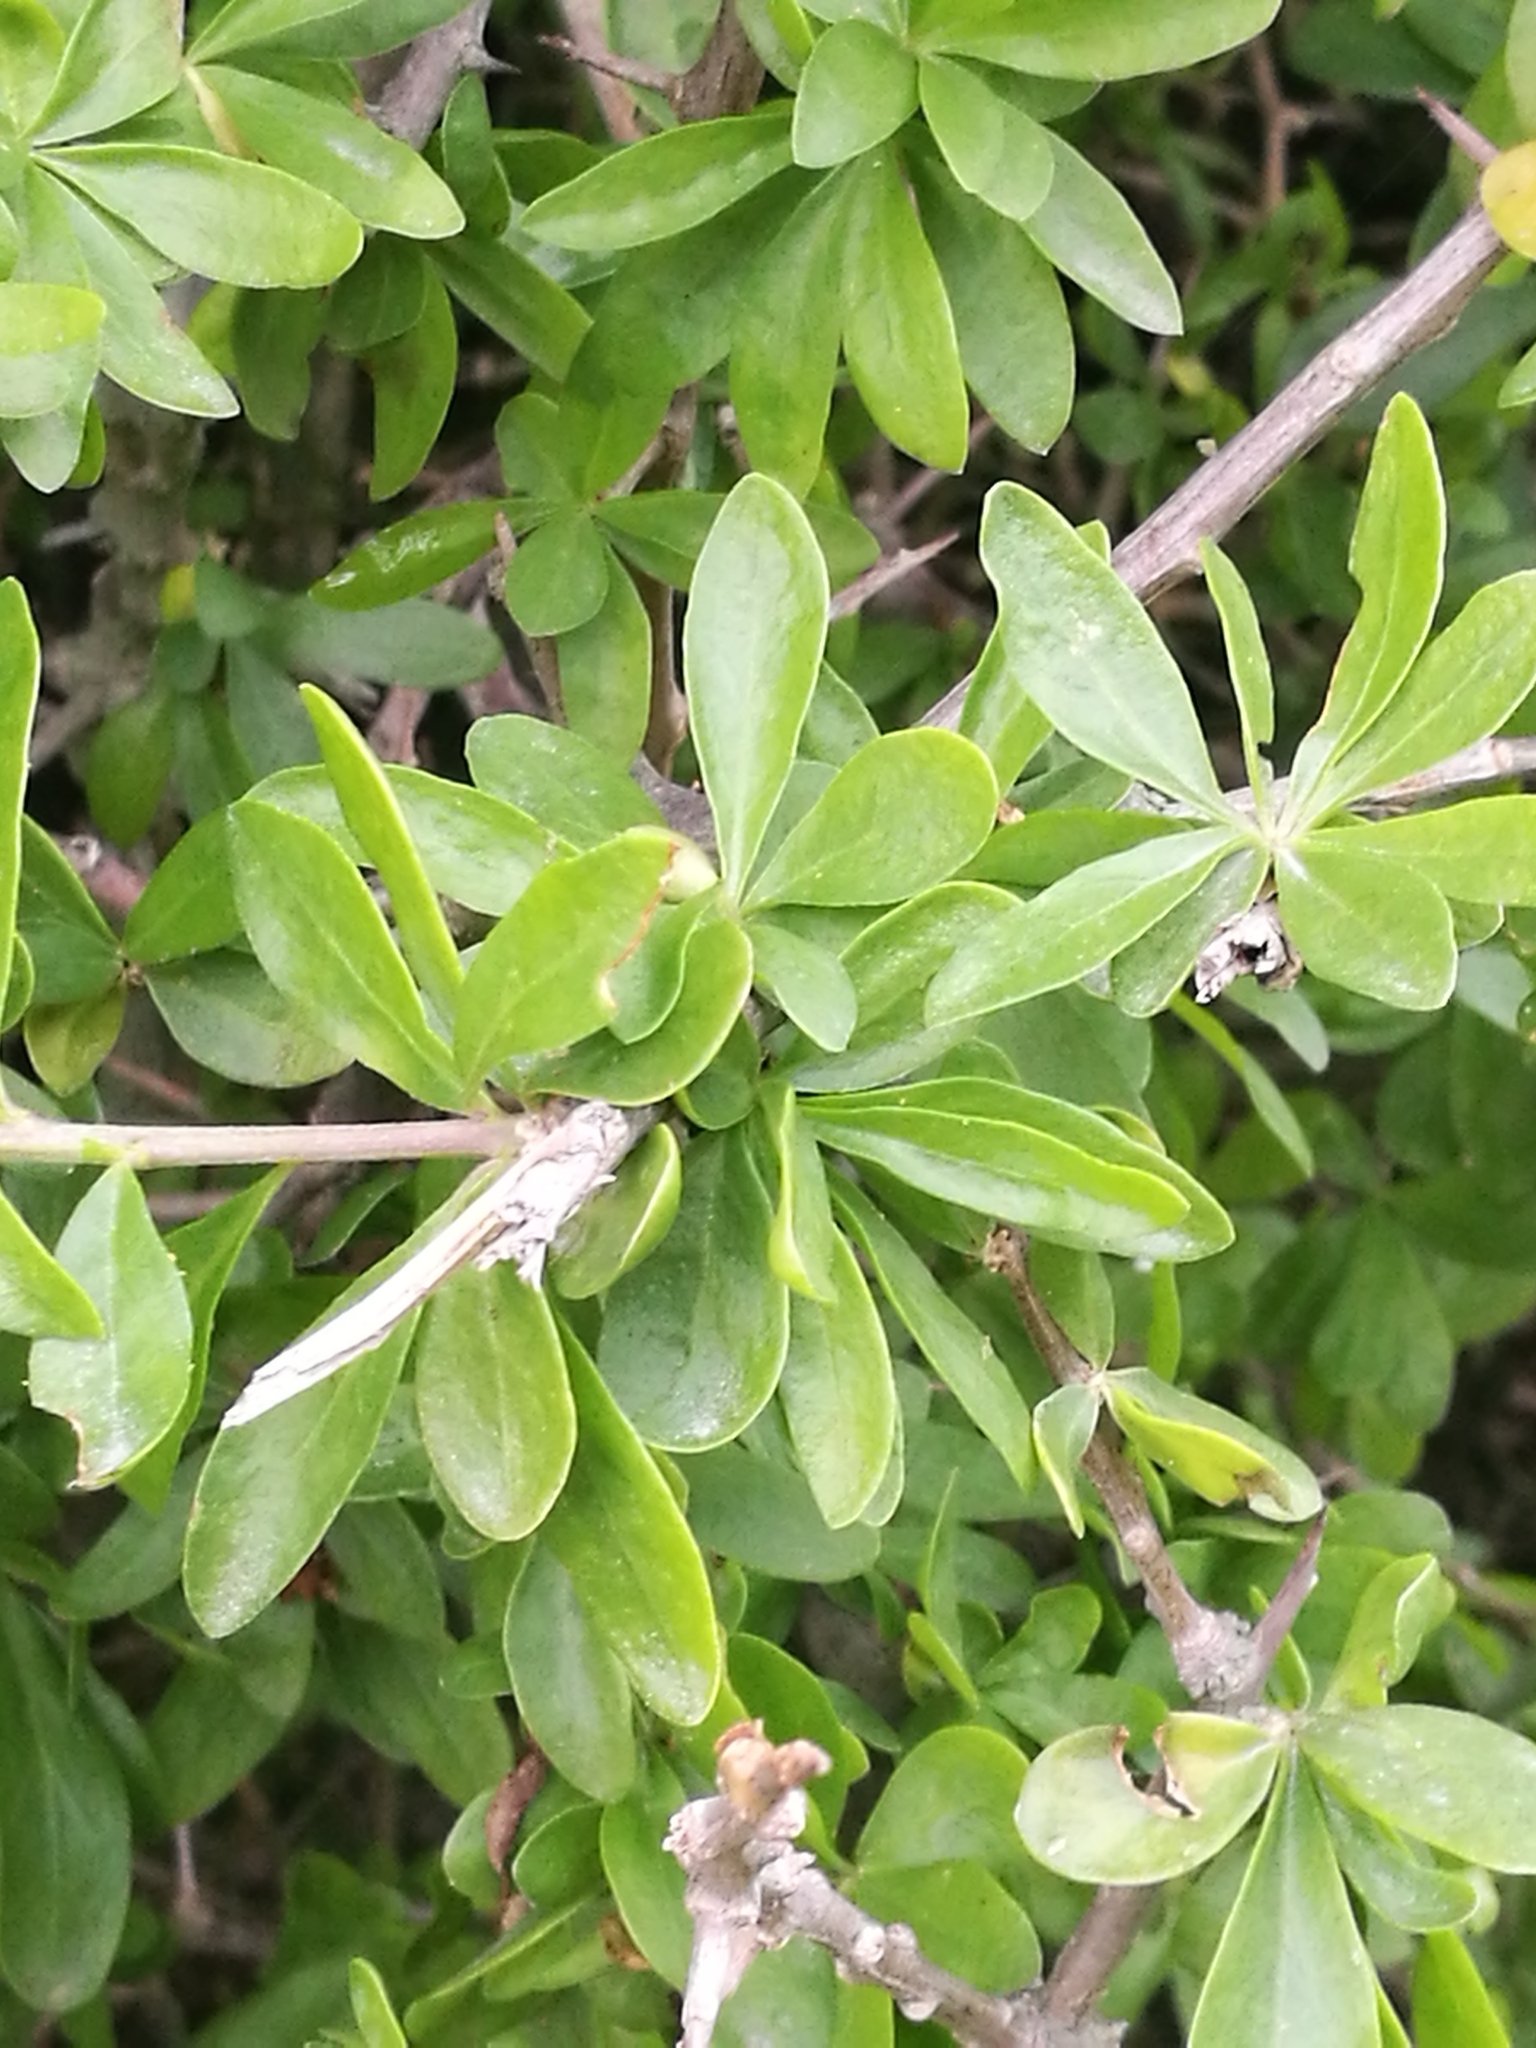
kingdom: Plantae
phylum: Tracheophyta
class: Magnoliopsida
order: Solanales
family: Solanaceae
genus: Lycium
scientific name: Lycium ferocissimum
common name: African boxthorn
